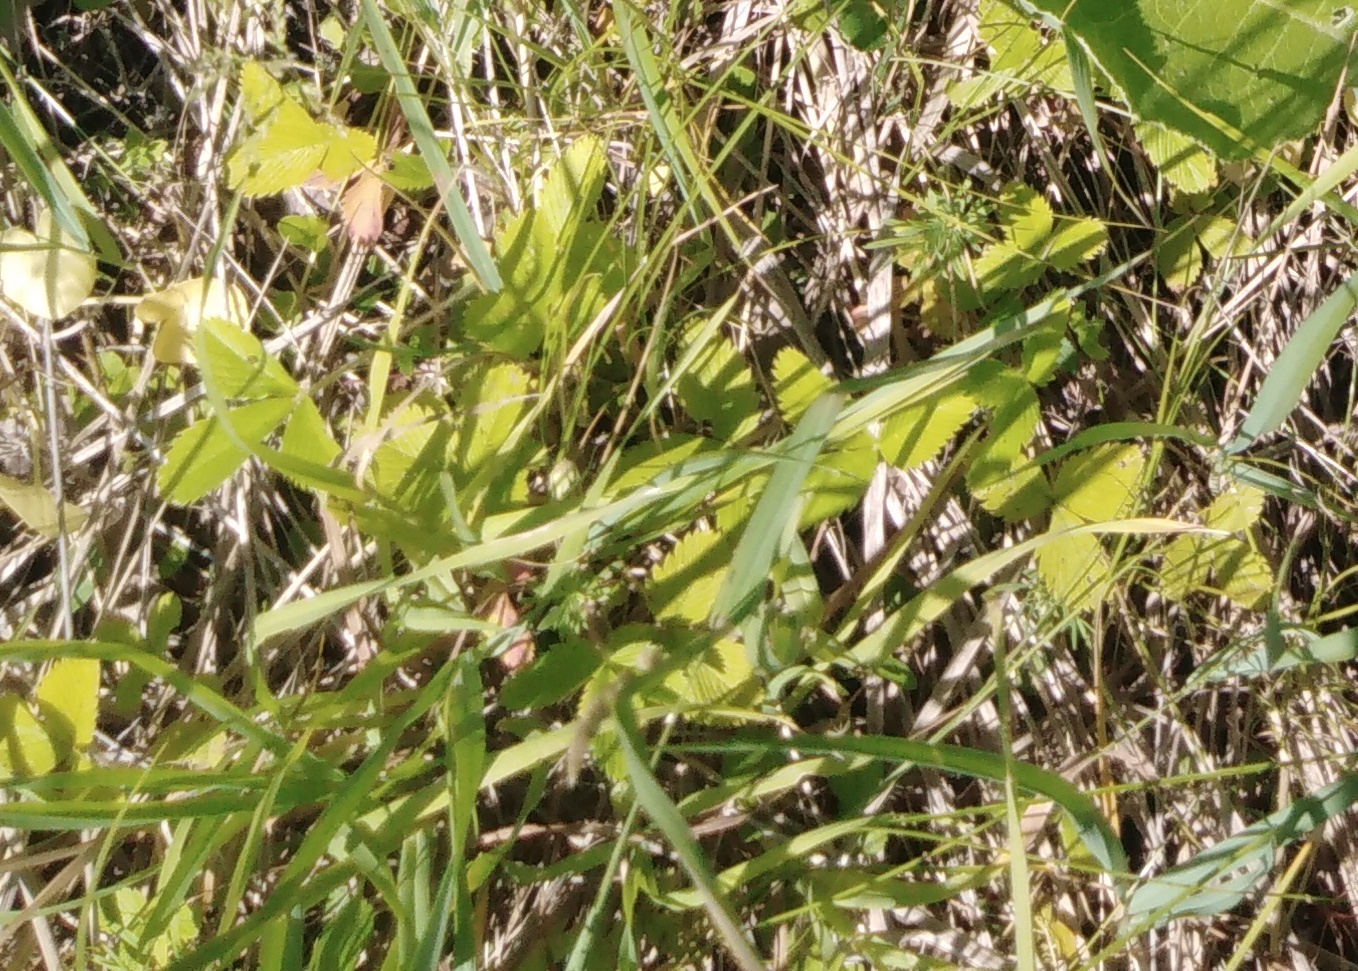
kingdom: Plantae
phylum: Tracheophyta
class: Magnoliopsida
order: Rosales
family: Rosaceae
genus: Fragaria
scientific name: Fragaria viridis
